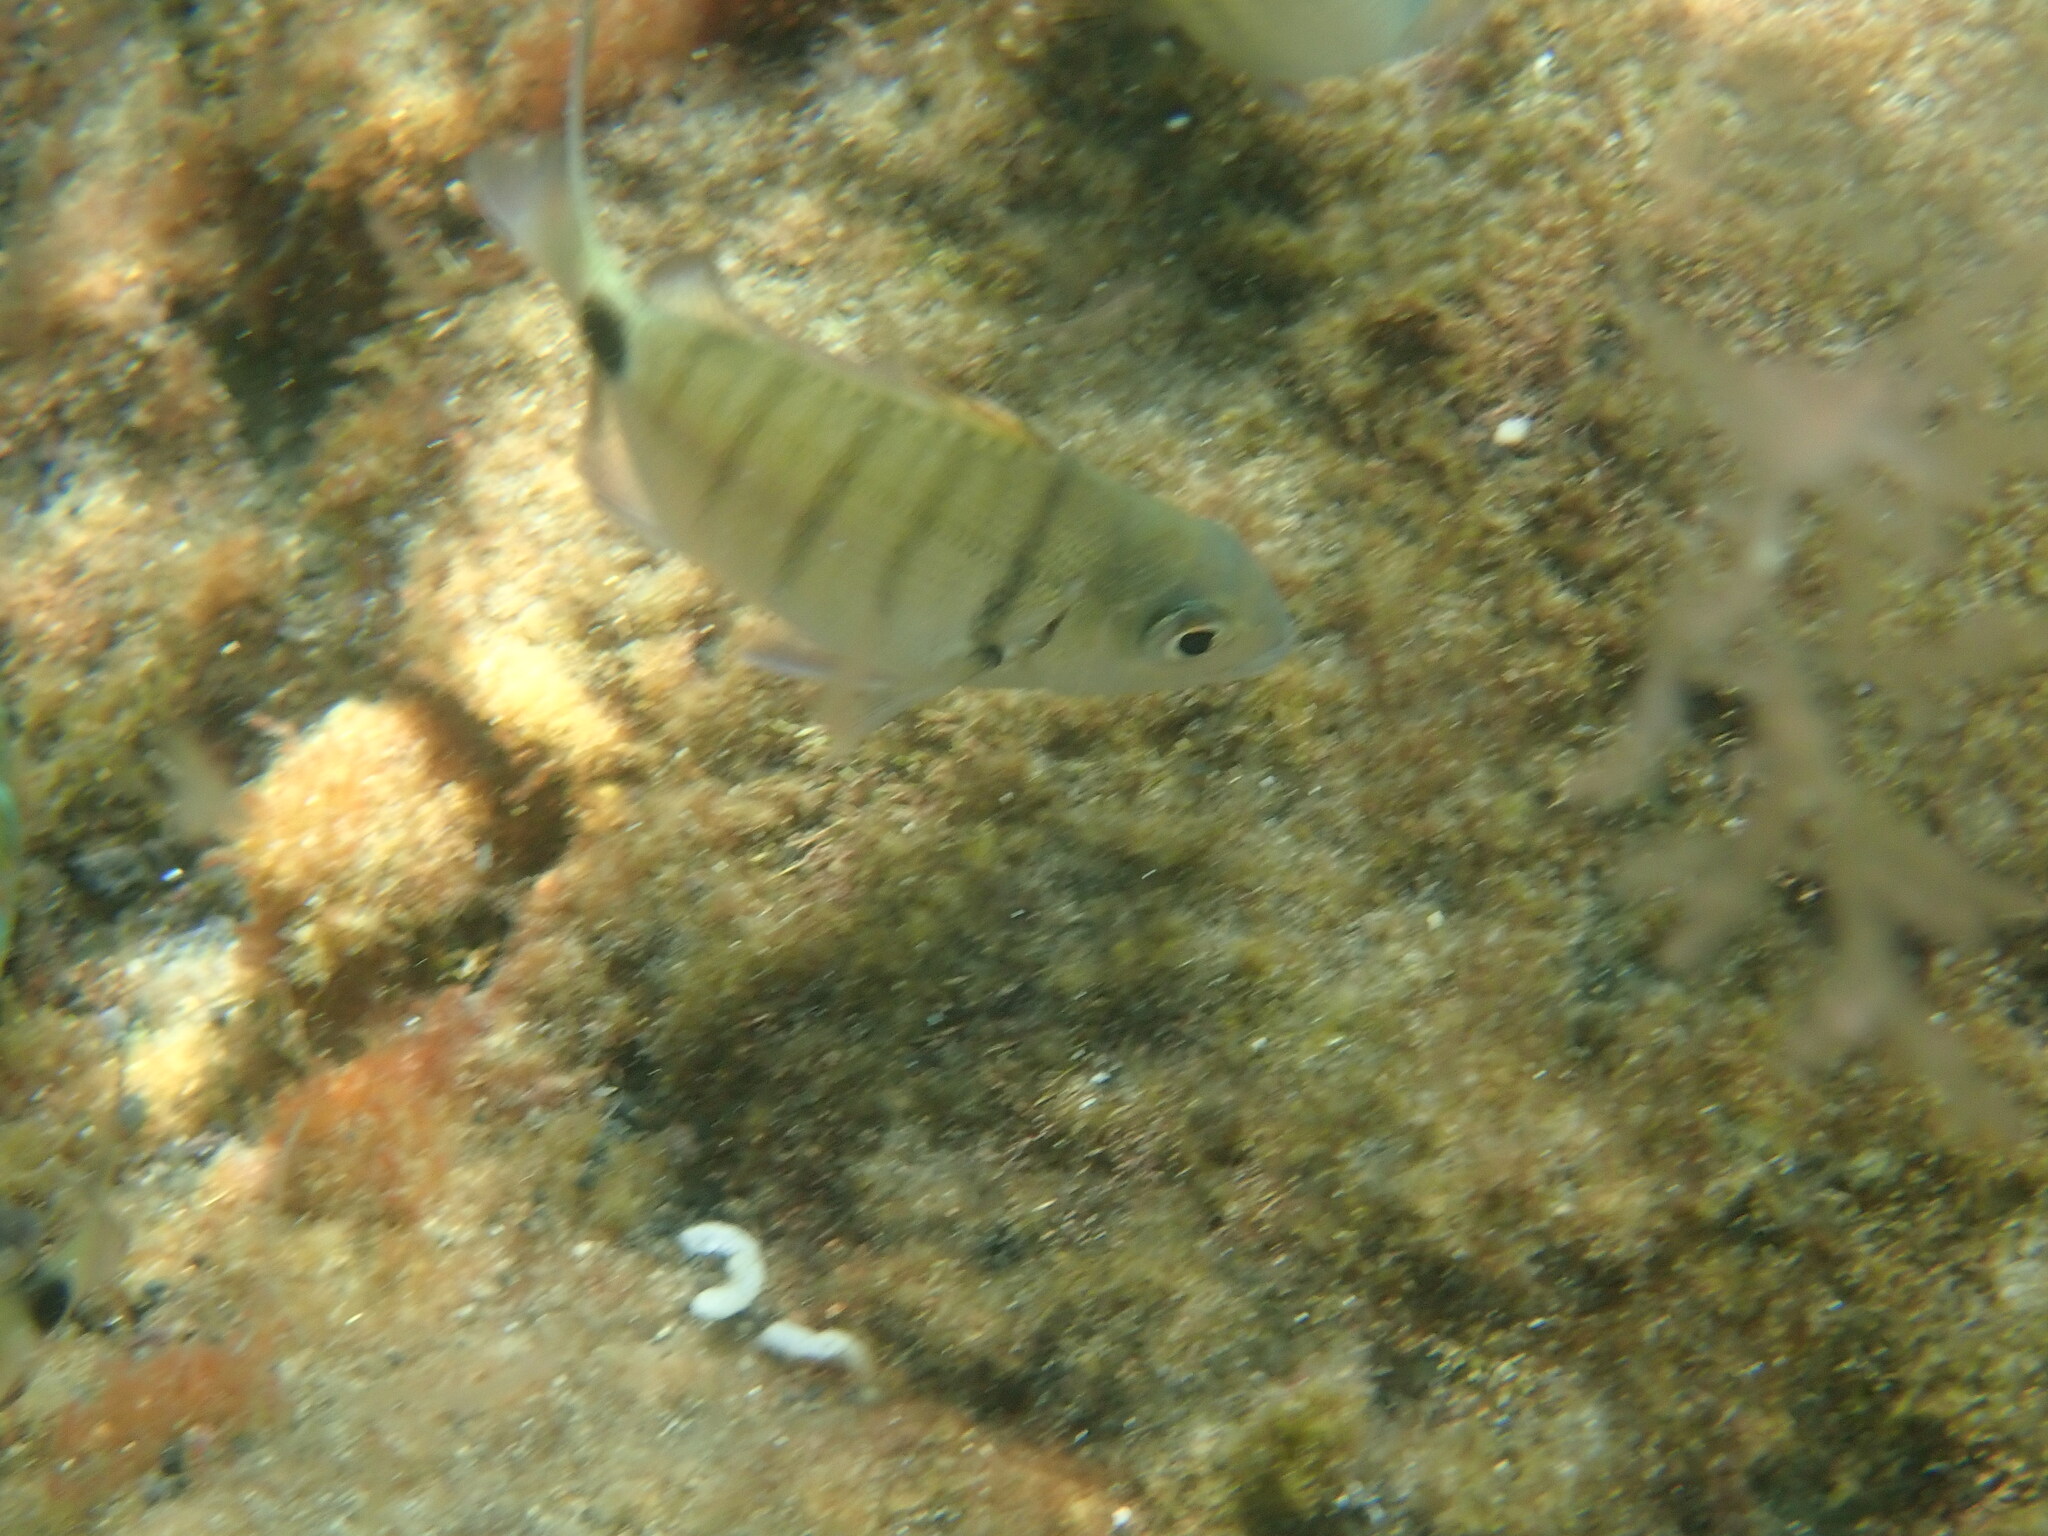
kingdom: Animalia
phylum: Chordata
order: Perciformes
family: Sparidae
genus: Diplodus
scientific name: Diplodus cadenati
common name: Moroccan white seabream
